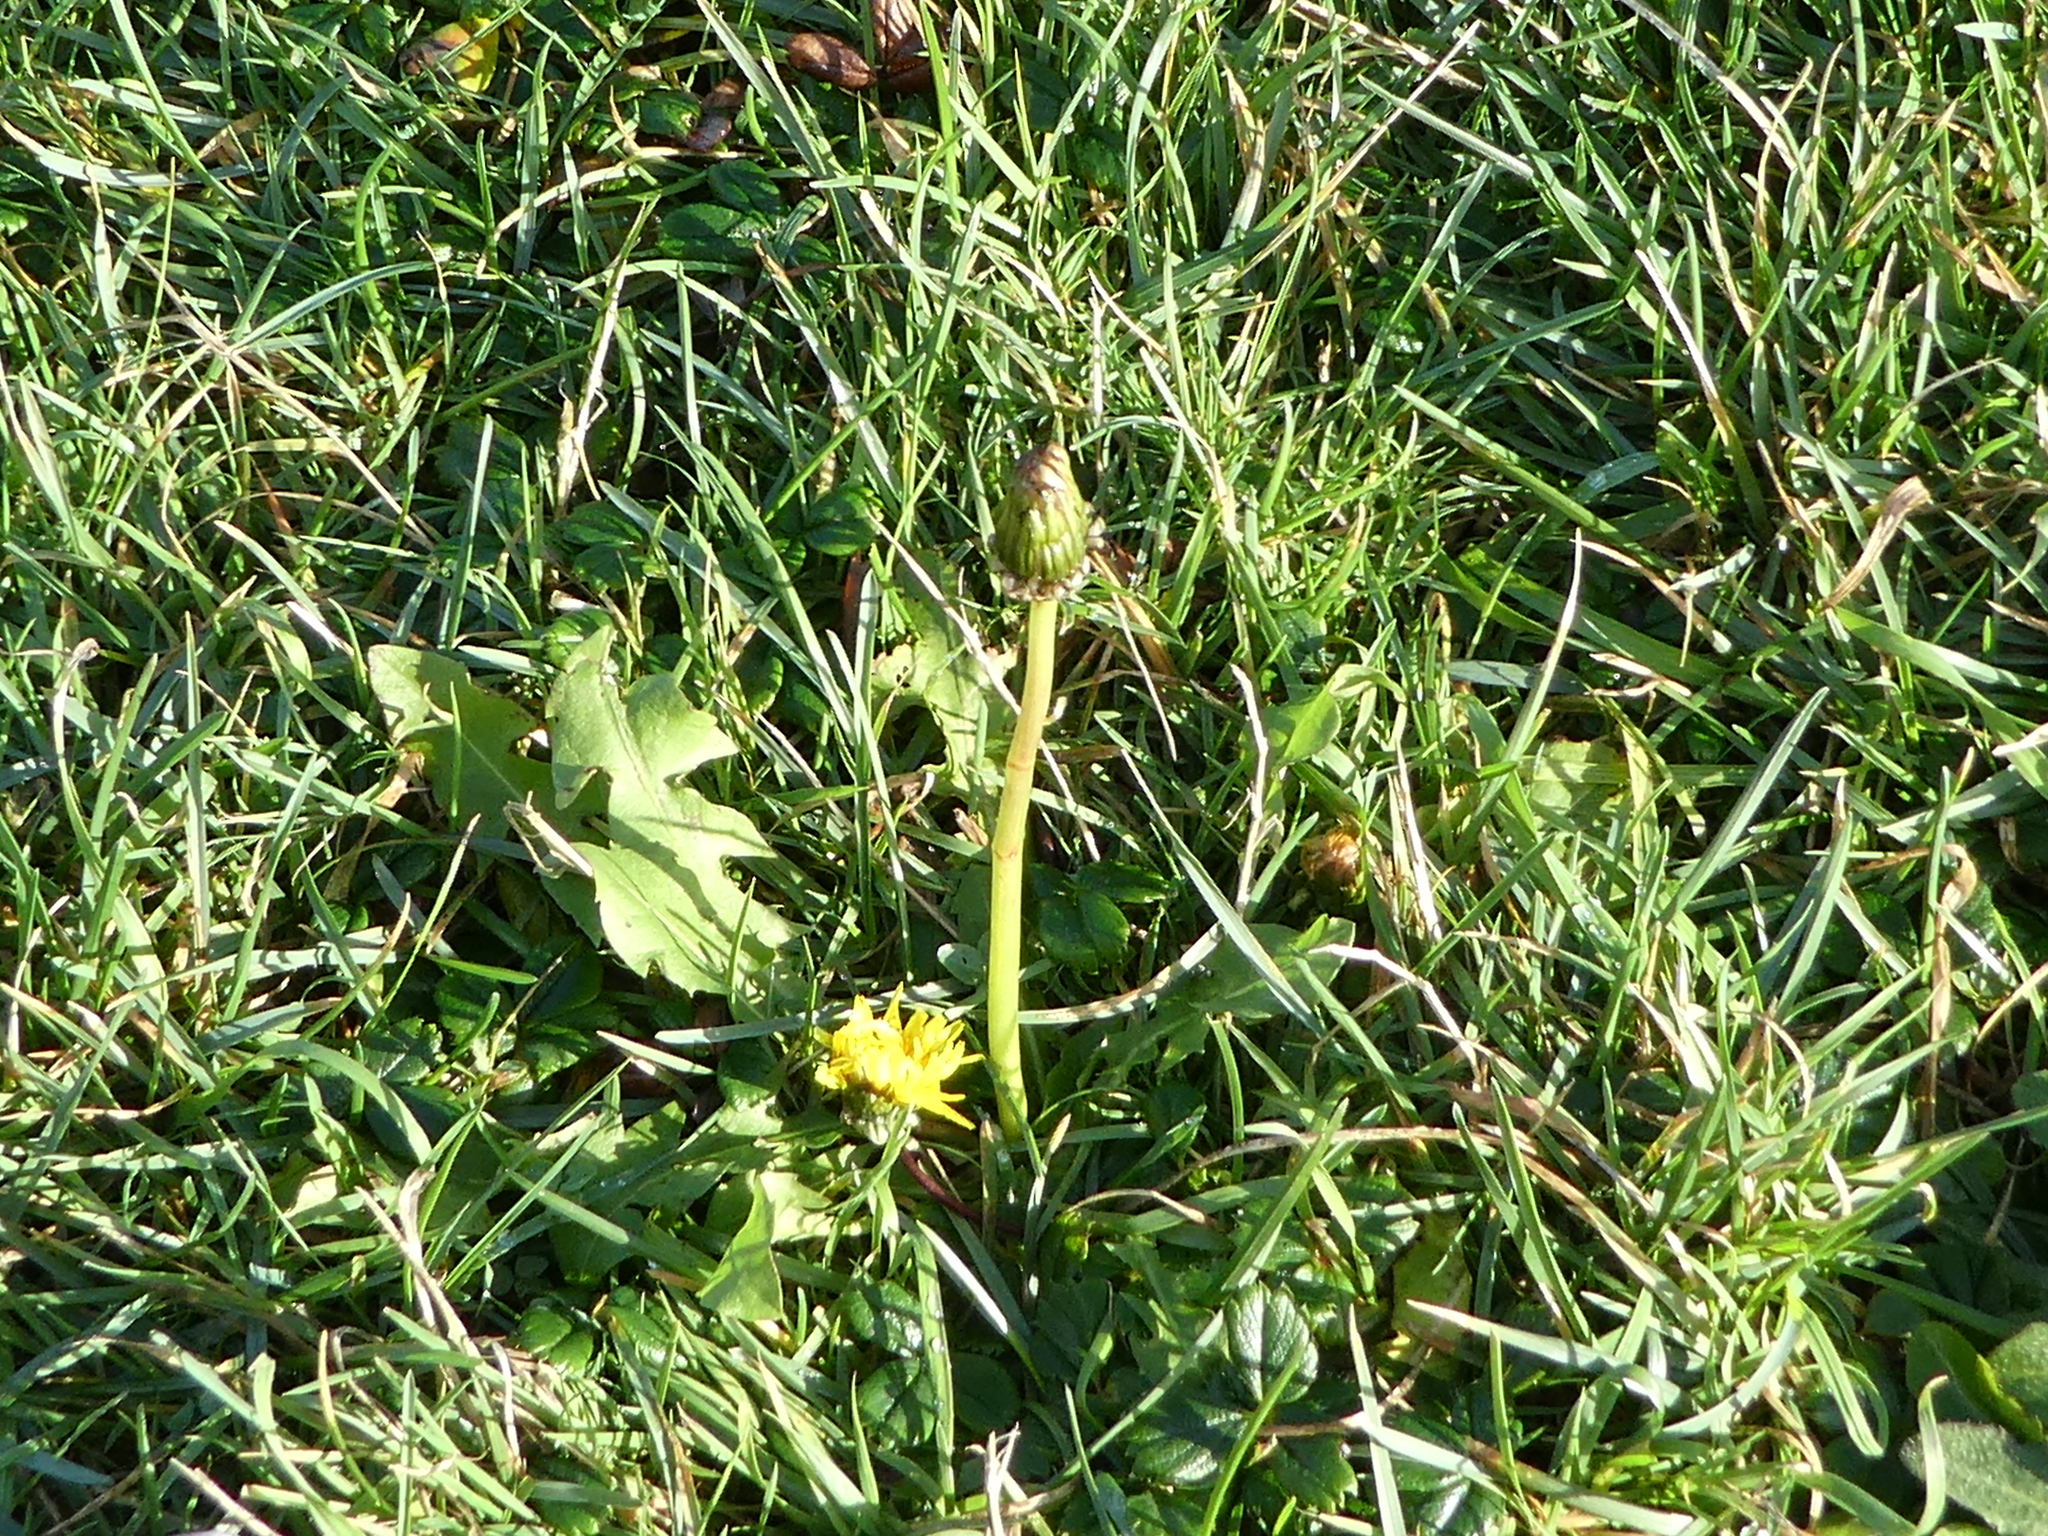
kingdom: Plantae
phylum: Tracheophyta
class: Magnoliopsida
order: Asterales
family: Asteraceae
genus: Taraxacum
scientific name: Taraxacum officinale
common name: Common dandelion
